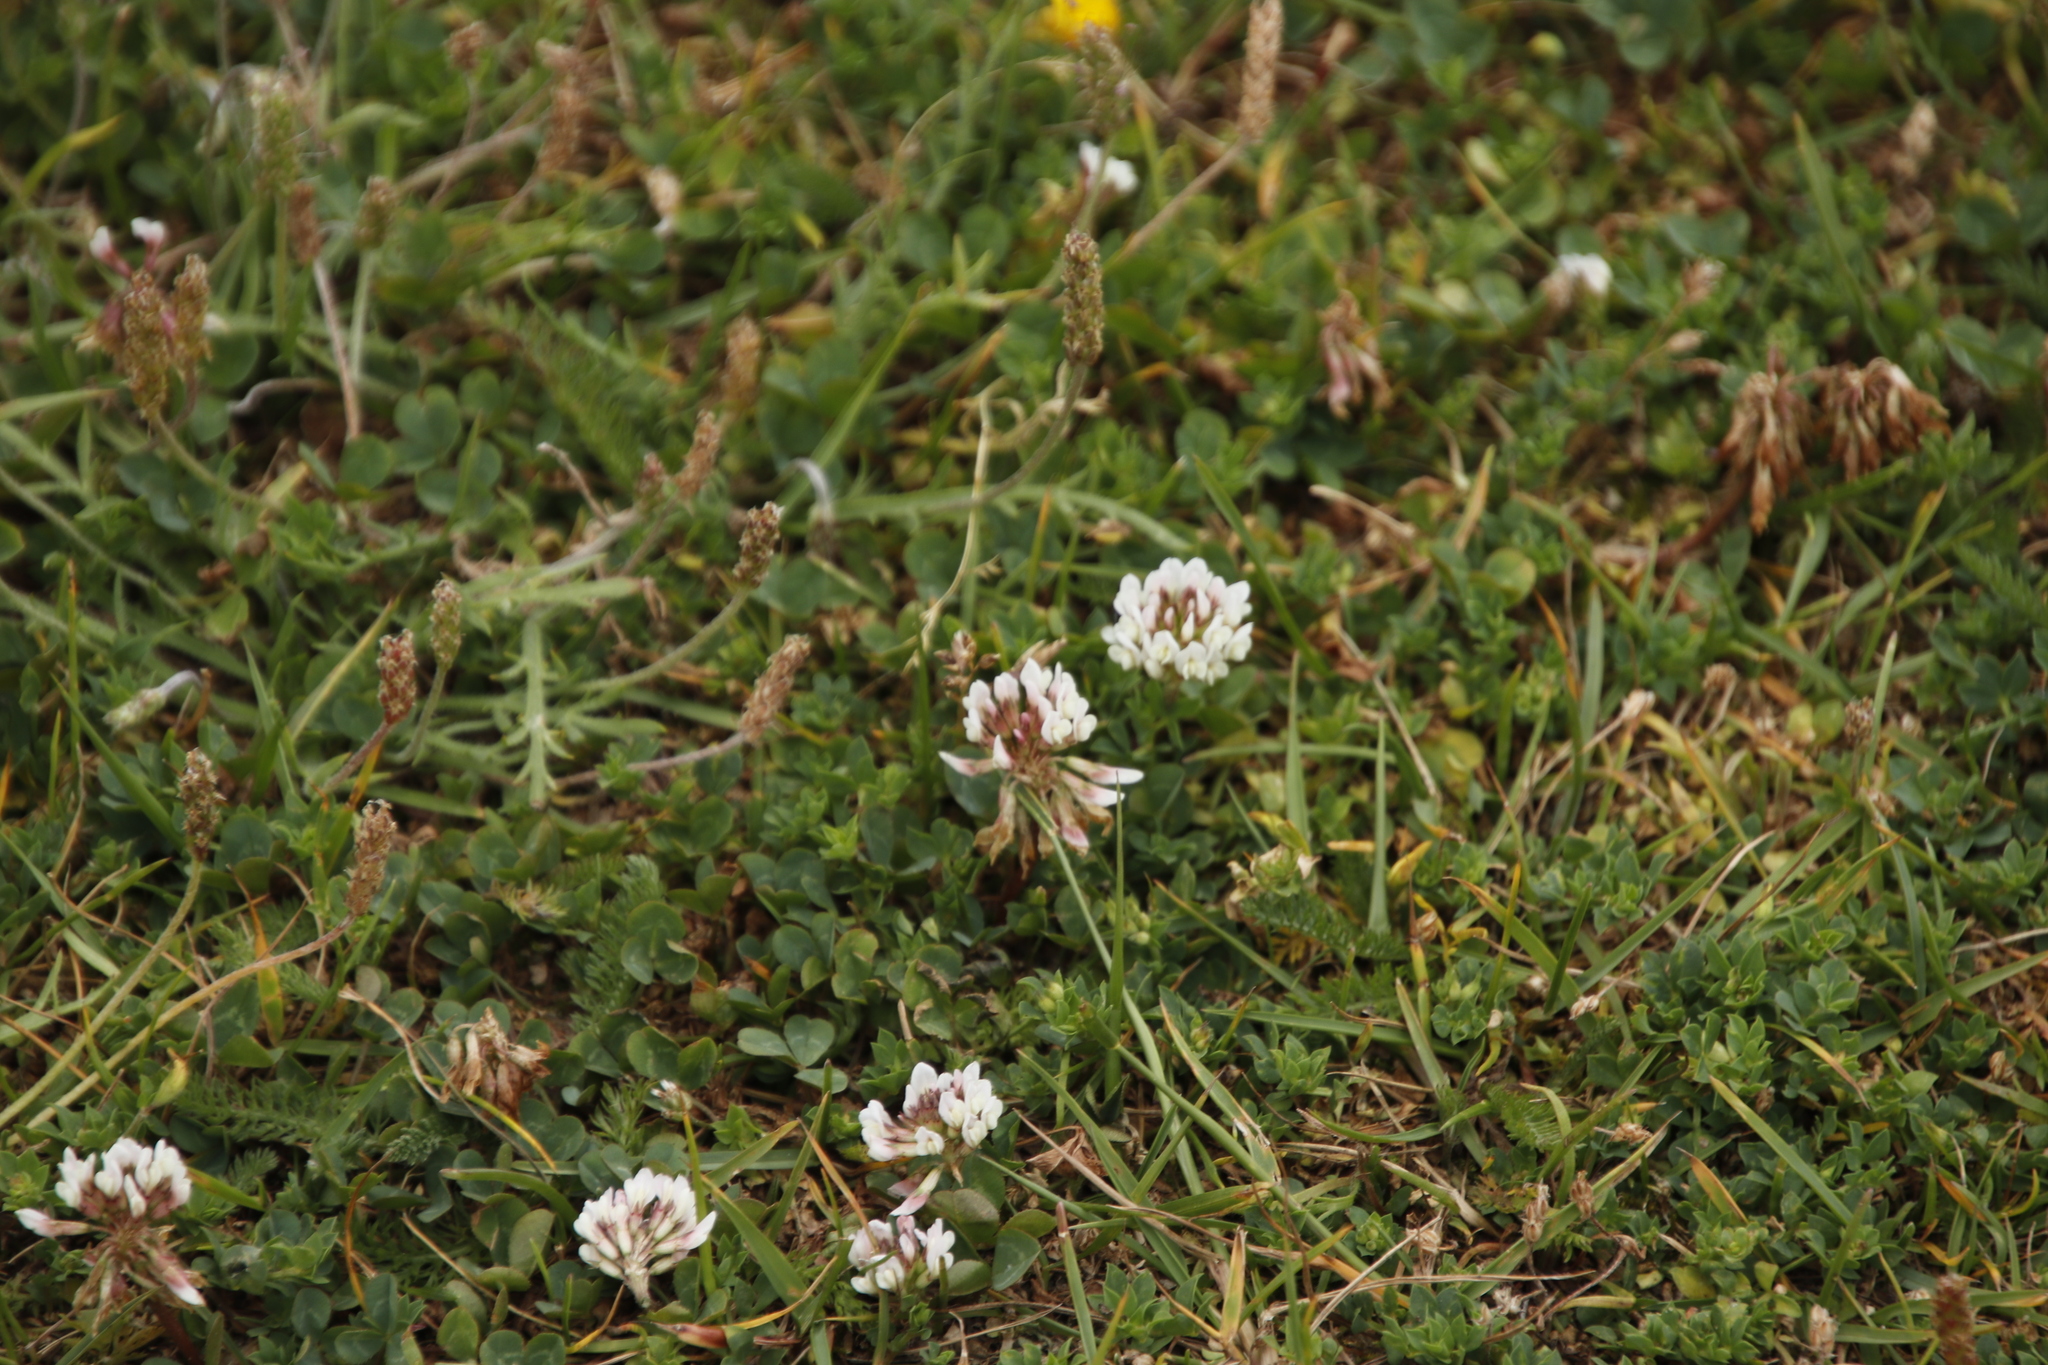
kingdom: Plantae
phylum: Tracheophyta
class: Magnoliopsida
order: Fabales
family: Fabaceae
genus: Trifolium
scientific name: Trifolium repens
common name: White clover
